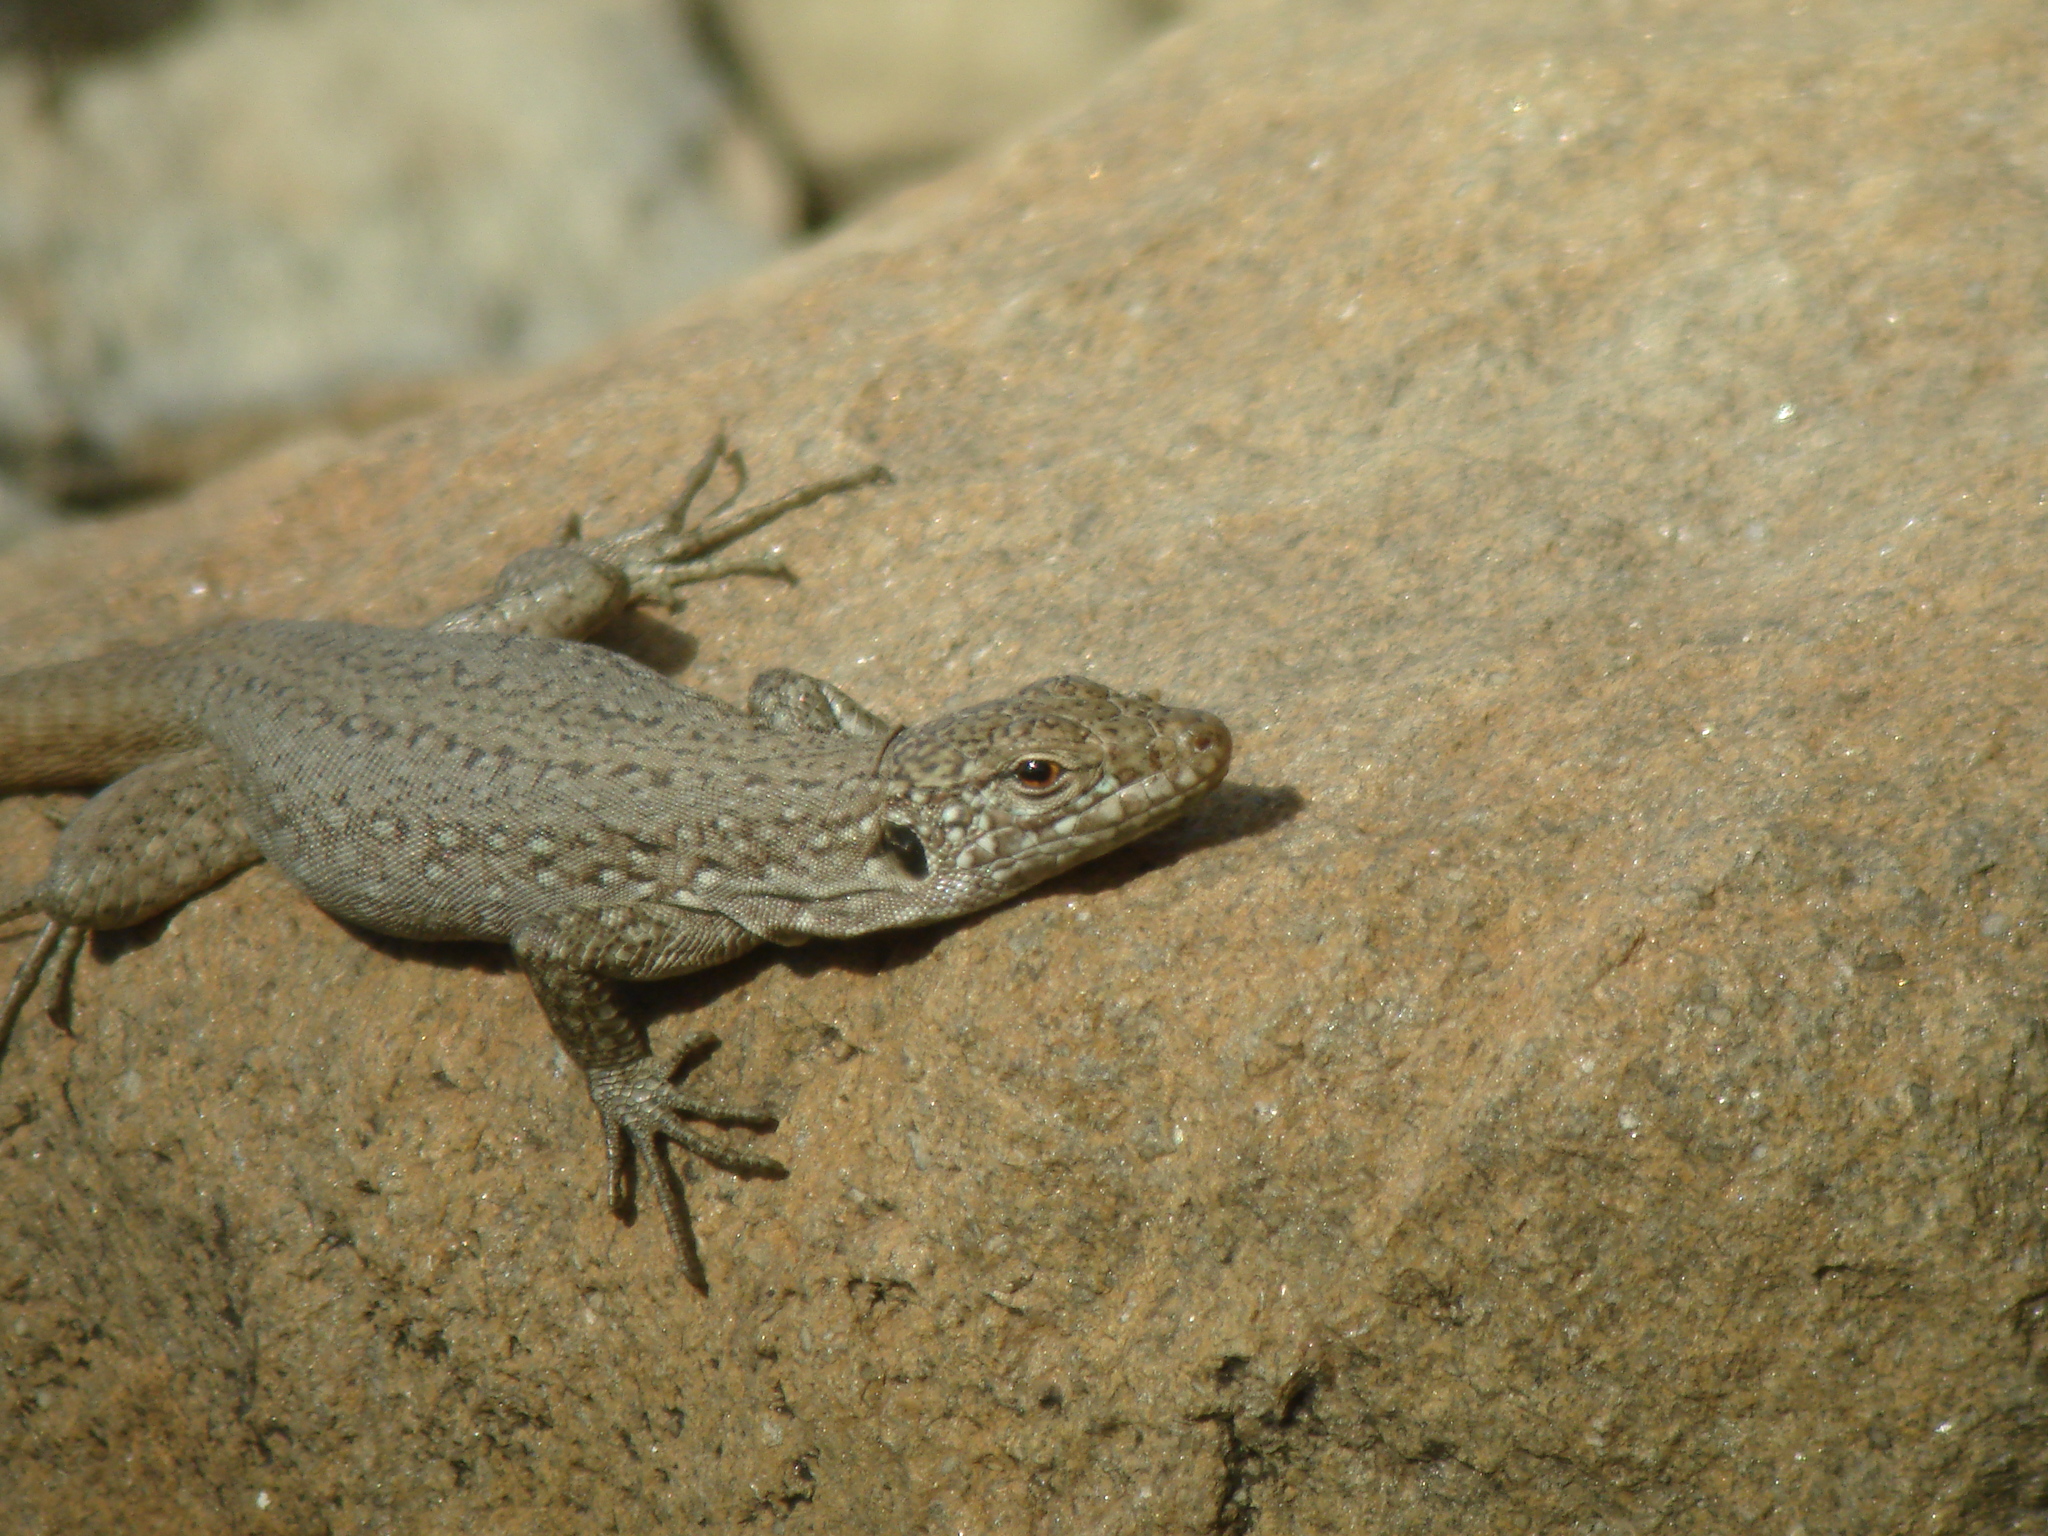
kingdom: Animalia
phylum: Chordata
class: Squamata
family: Lacertidae
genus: Gallotia
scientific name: Gallotia intermedia
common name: Tenerife speckled lizard
